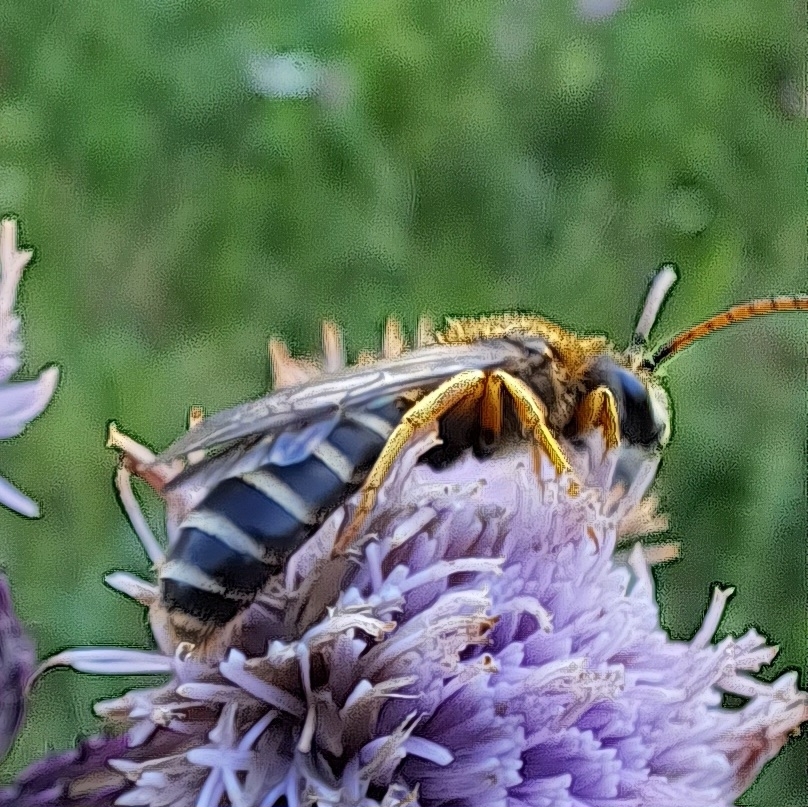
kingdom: Animalia
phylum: Arthropoda
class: Insecta
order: Hymenoptera
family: Halictidae
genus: Halictus
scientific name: Halictus sexcinctus
